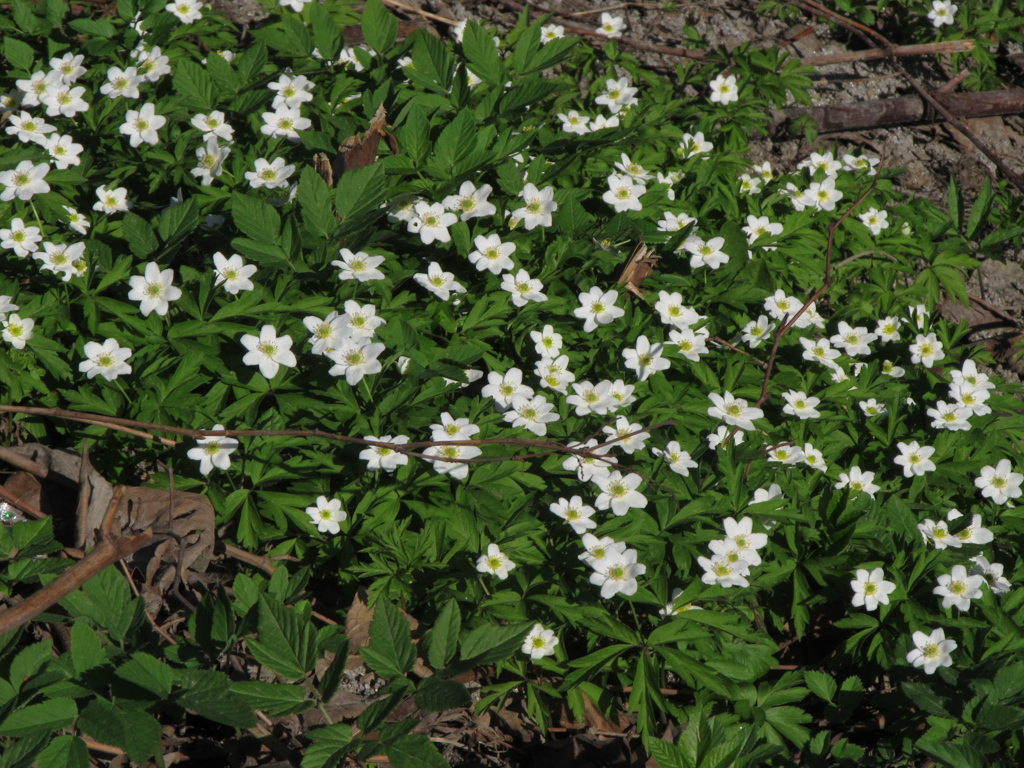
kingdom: Plantae
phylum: Tracheophyta
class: Magnoliopsida
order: Ranunculales
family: Ranunculaceae
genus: Anemone
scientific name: Anemone nemorosa
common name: Wood anemone
